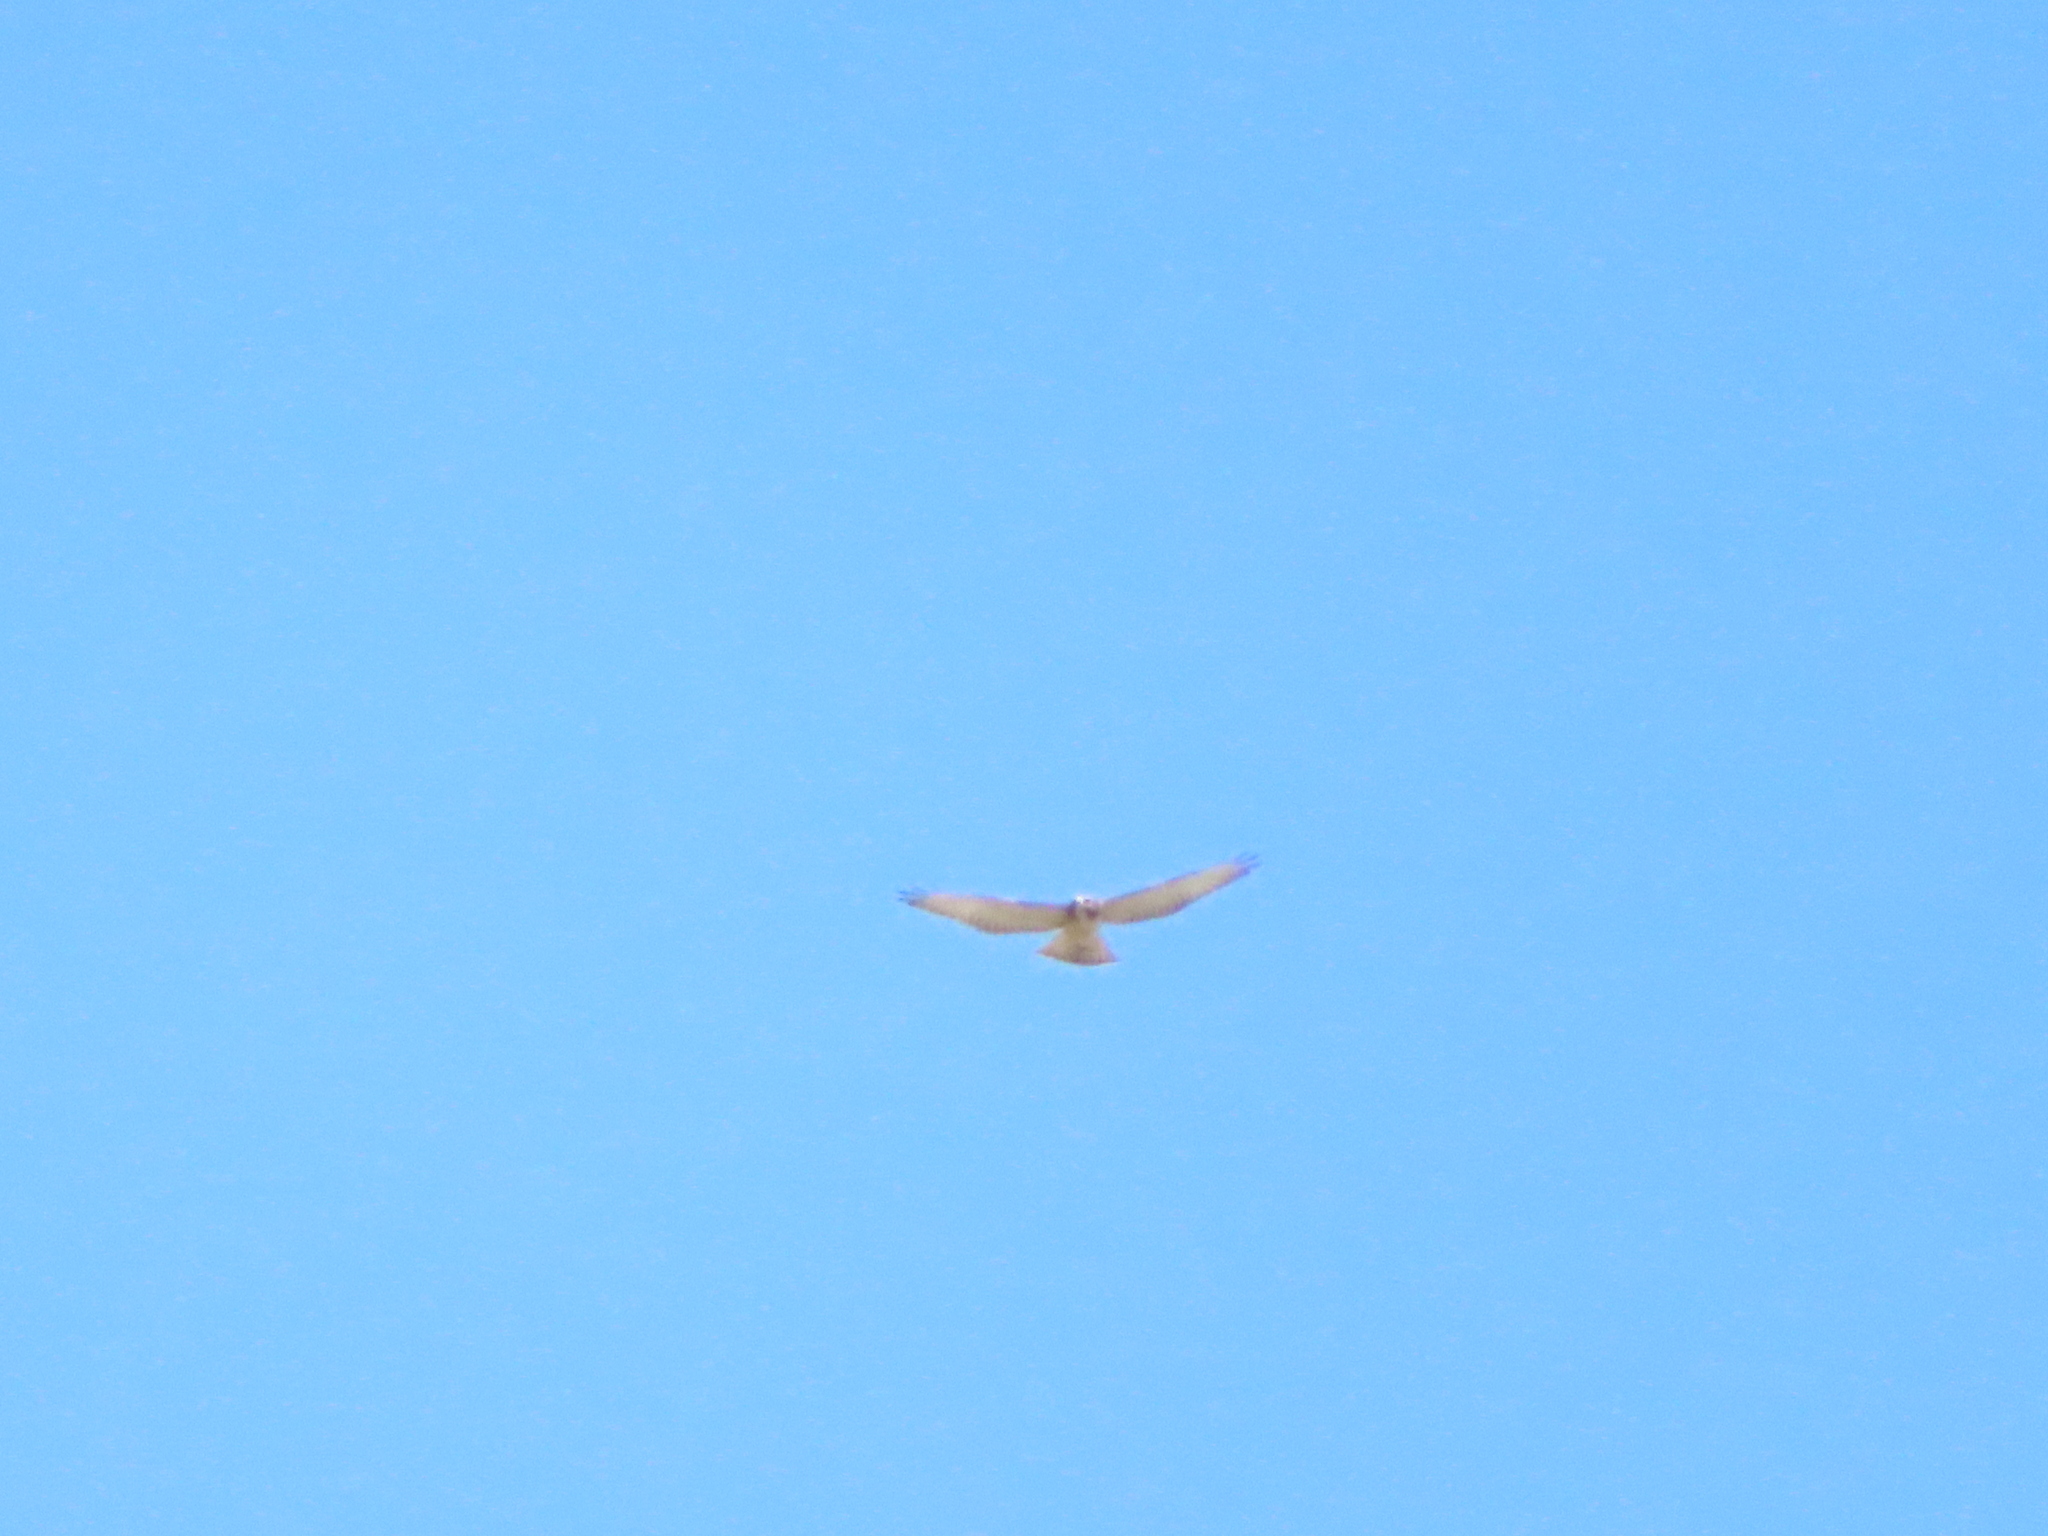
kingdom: Animalia
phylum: Chordata
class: Aves
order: Accipitriformes
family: Accipitridae
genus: Buteo
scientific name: Buteo platypterus
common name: Broad-winged hawk
